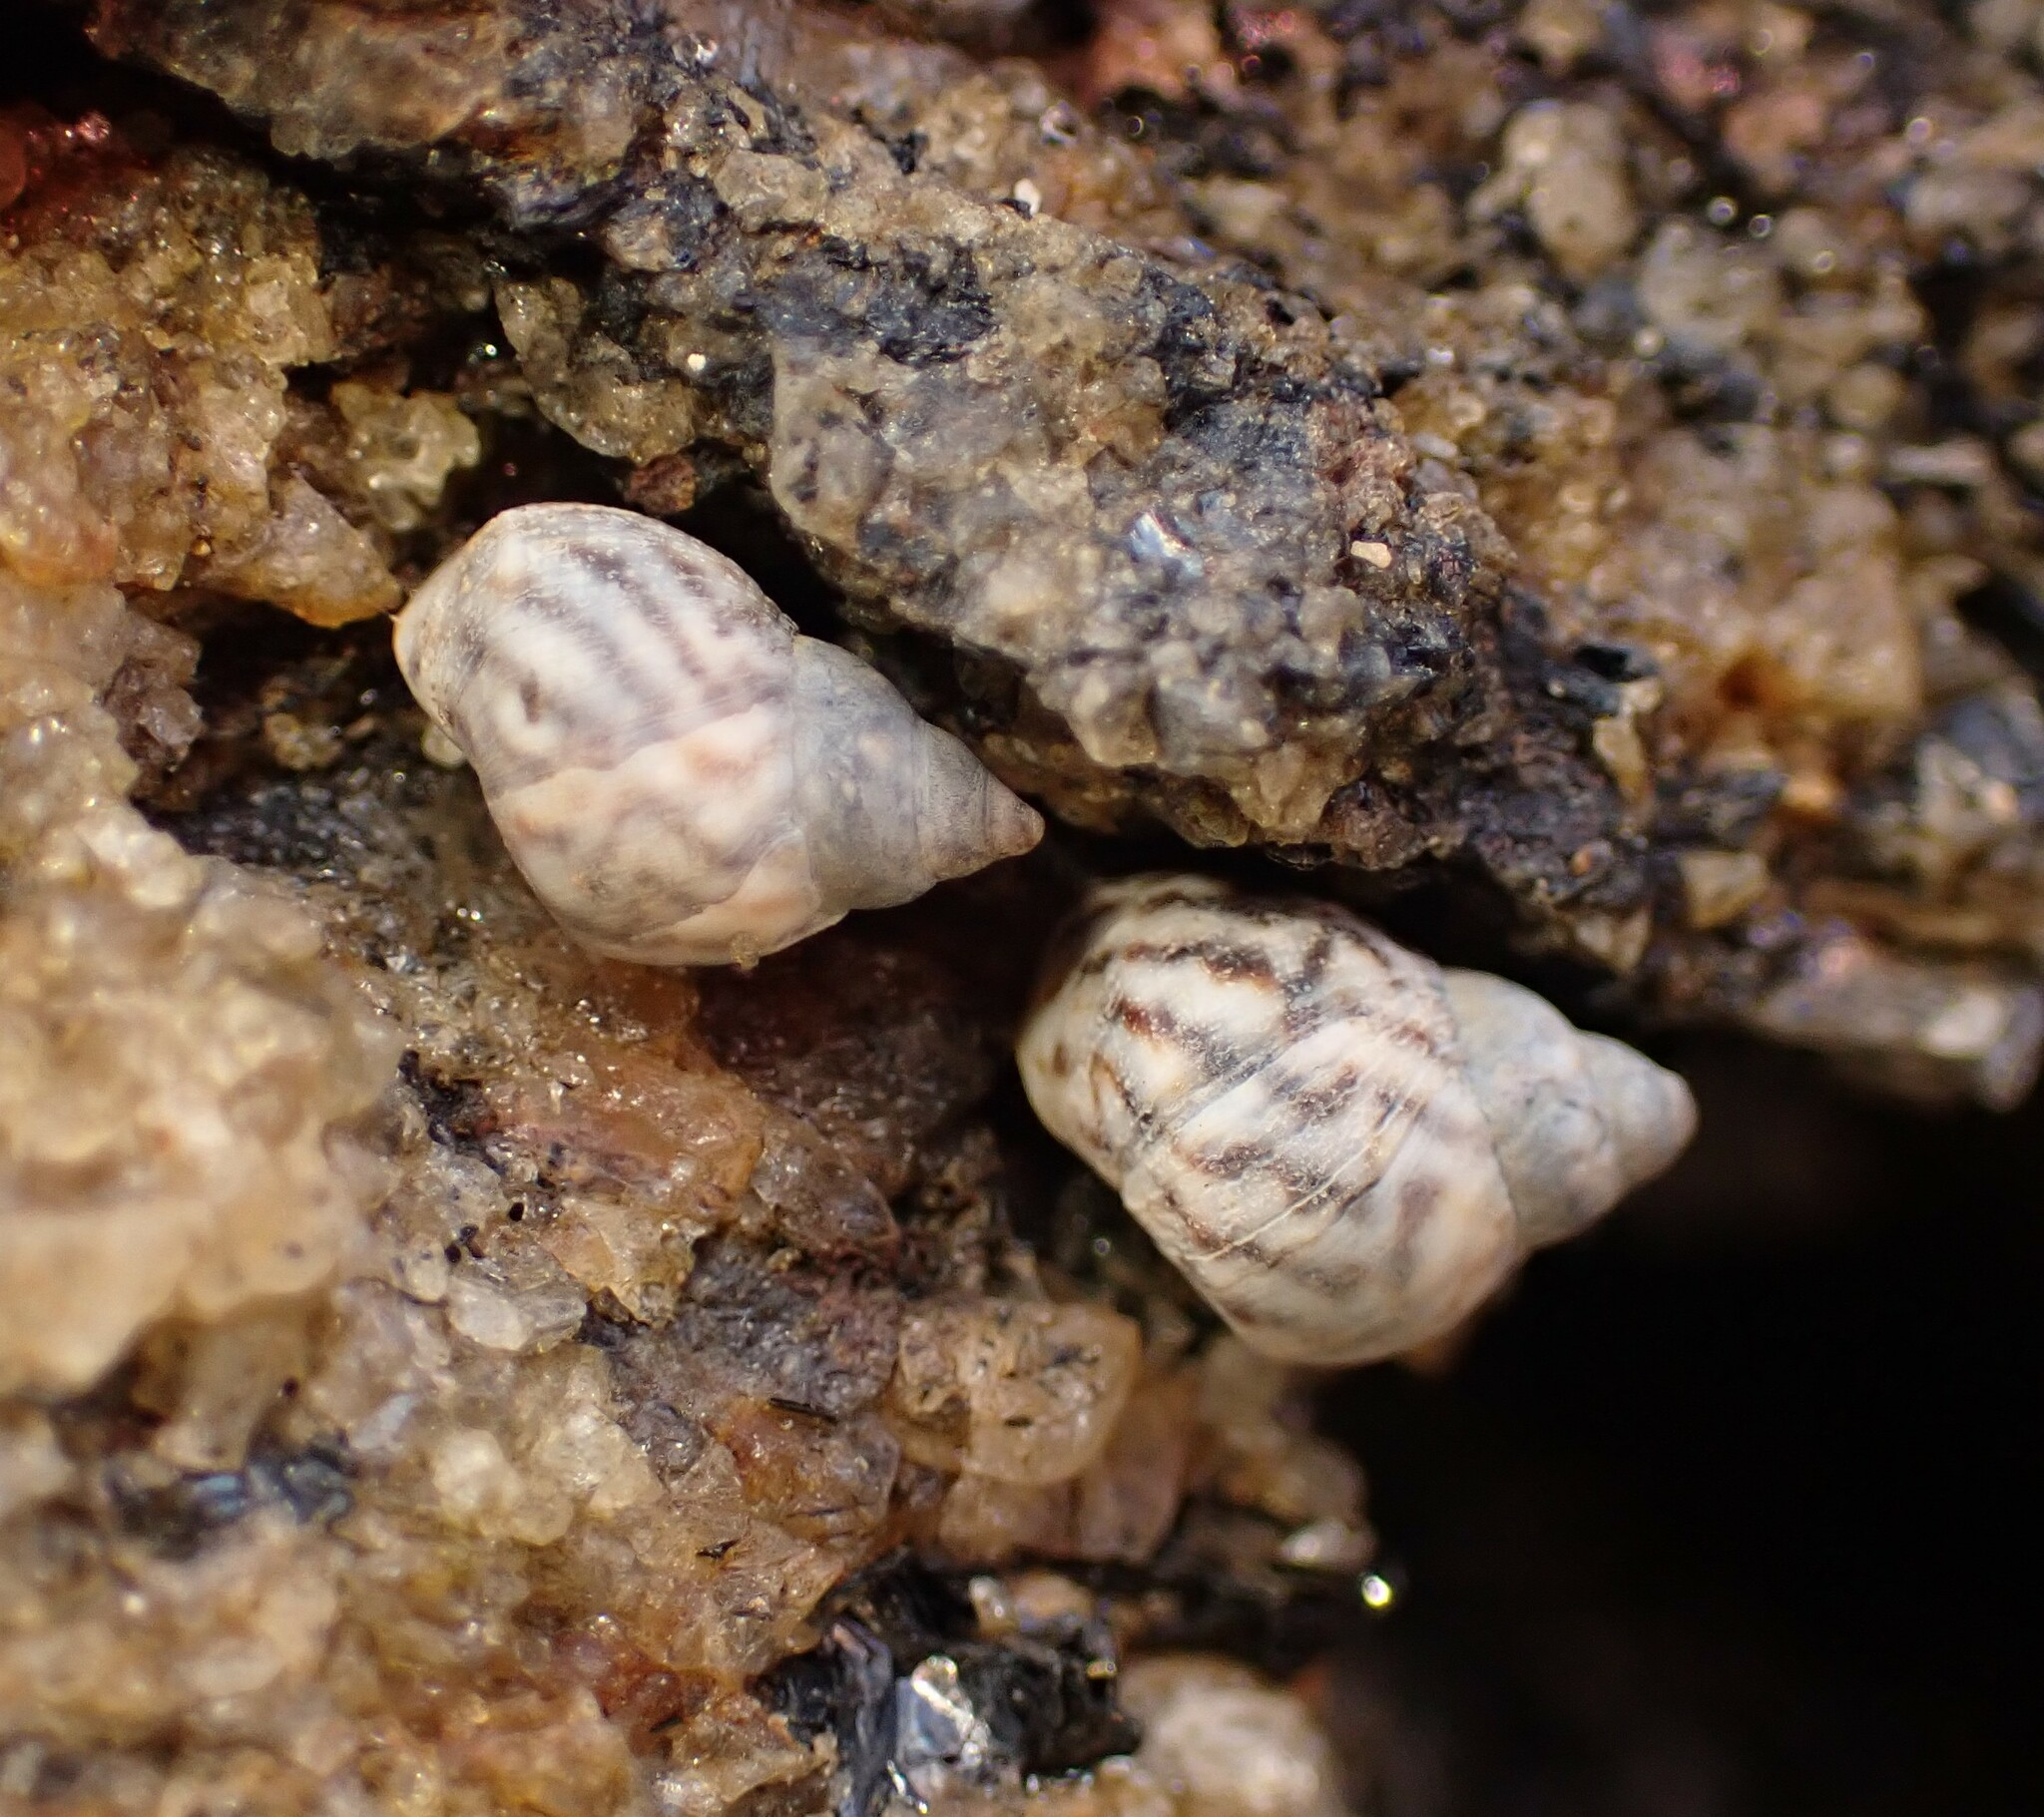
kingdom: Animalia
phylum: Mollusca
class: Gastropoda
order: Littorinimorpha
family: Littorinidae
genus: Echinolittorina
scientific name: Echinolittorina lineolata
